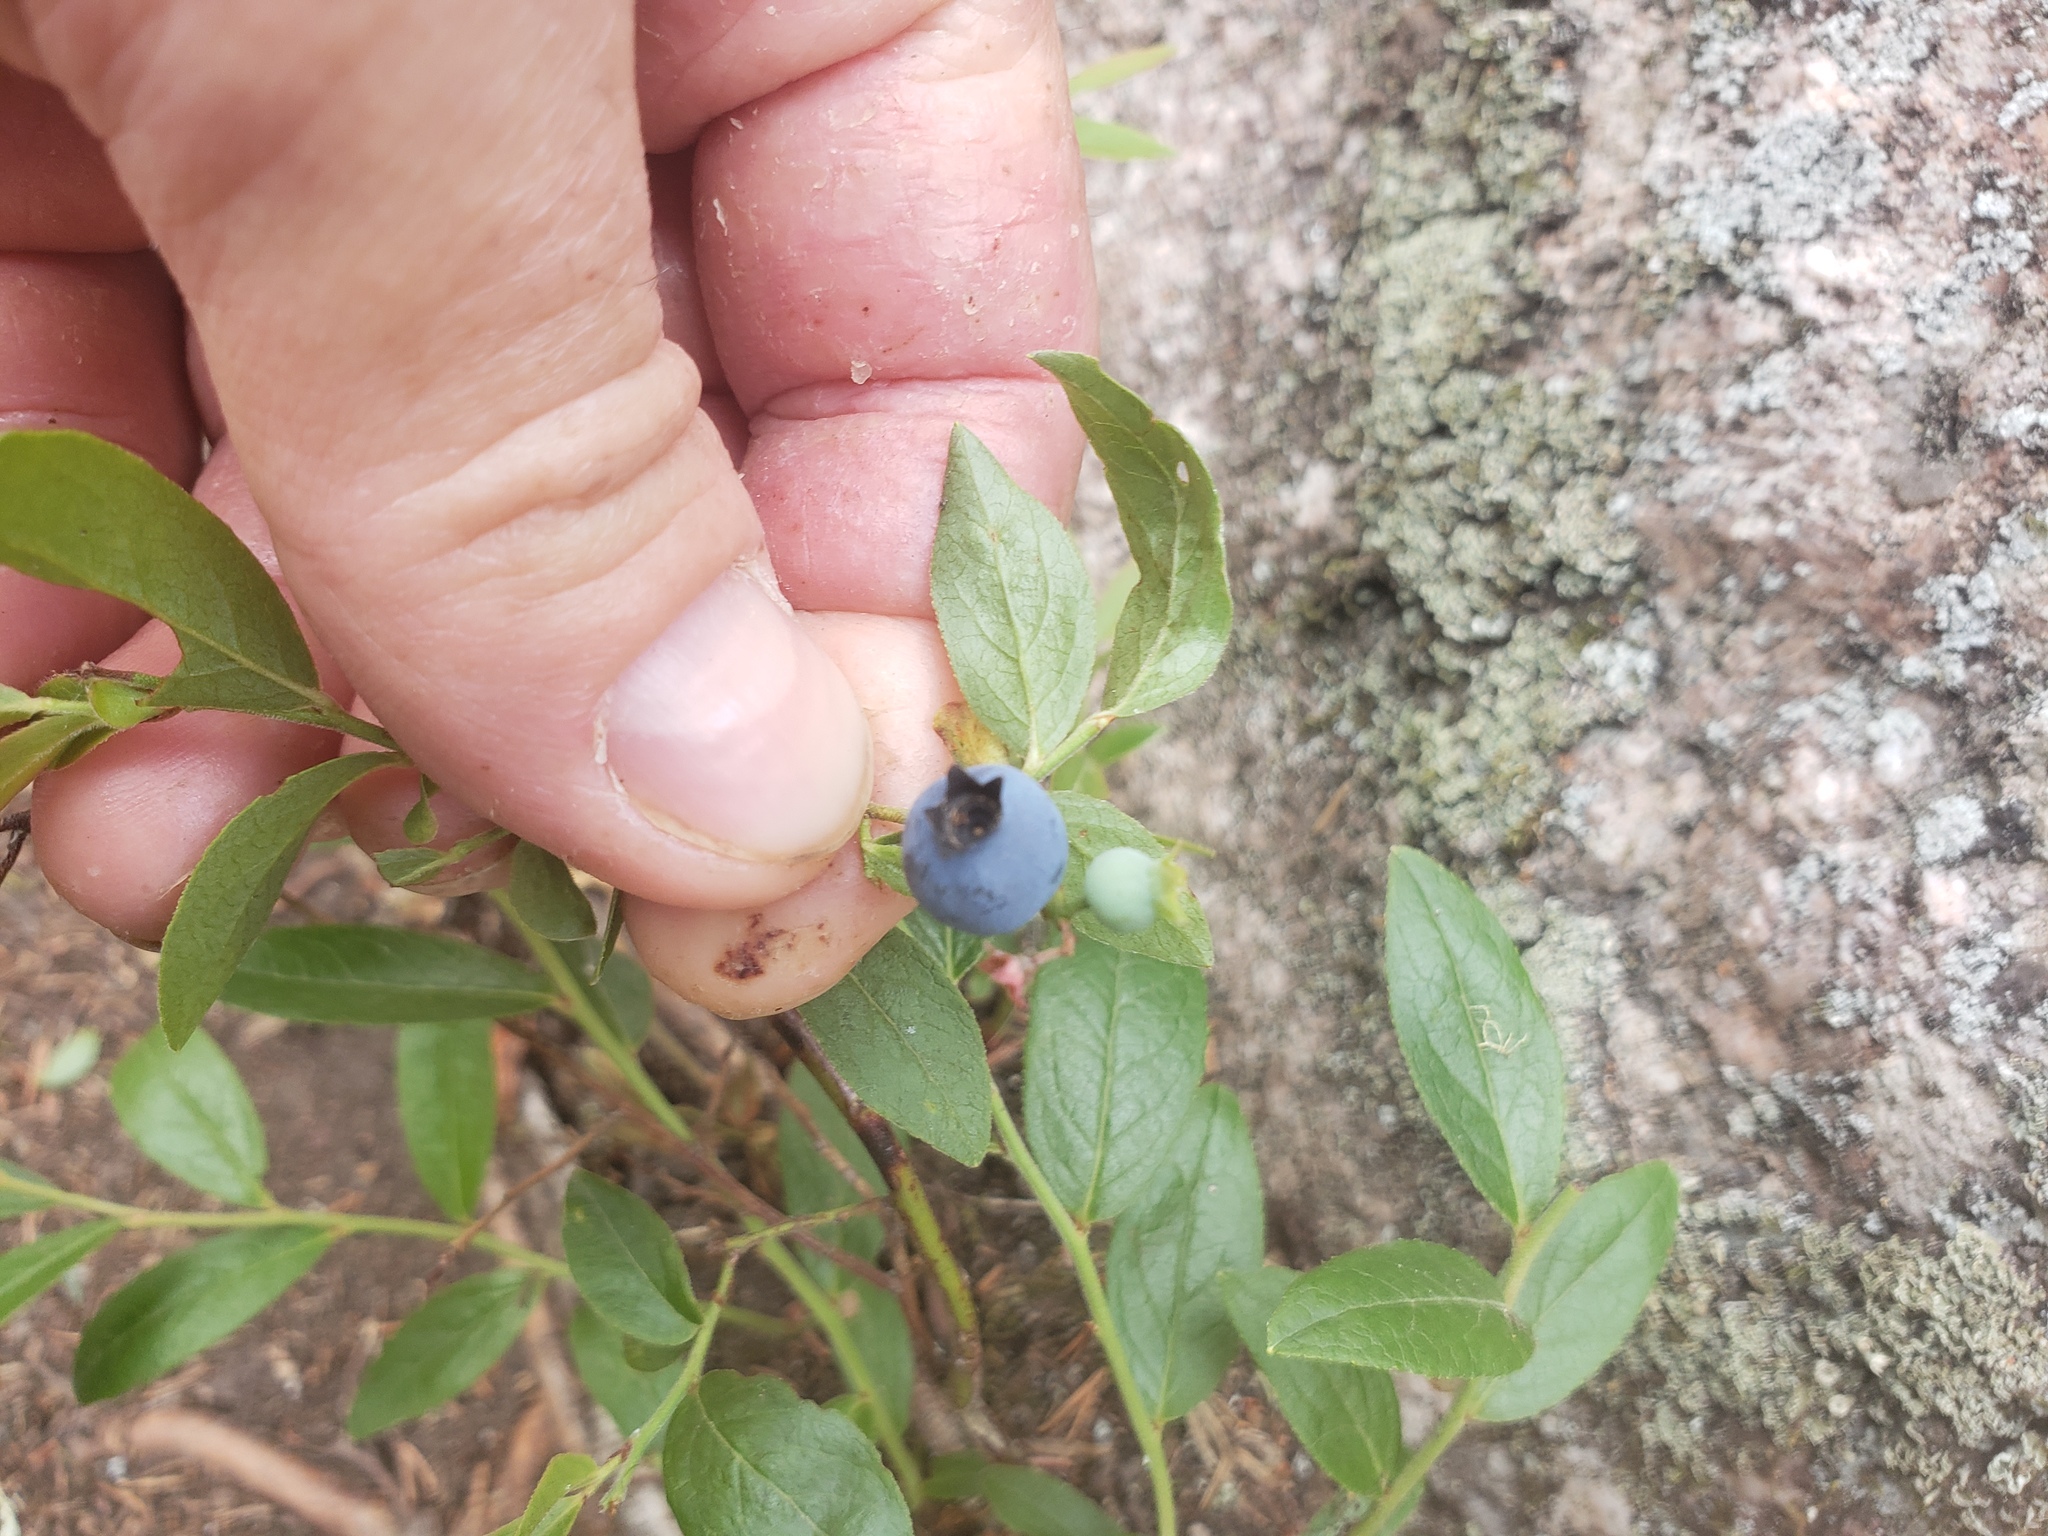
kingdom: Plantae
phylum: Tracheophyta
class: Magnoliopsida
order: Ericales
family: Ericaceae
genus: Vaccinium
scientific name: Vaccinium angustifolium
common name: Early lowbush blueberry
